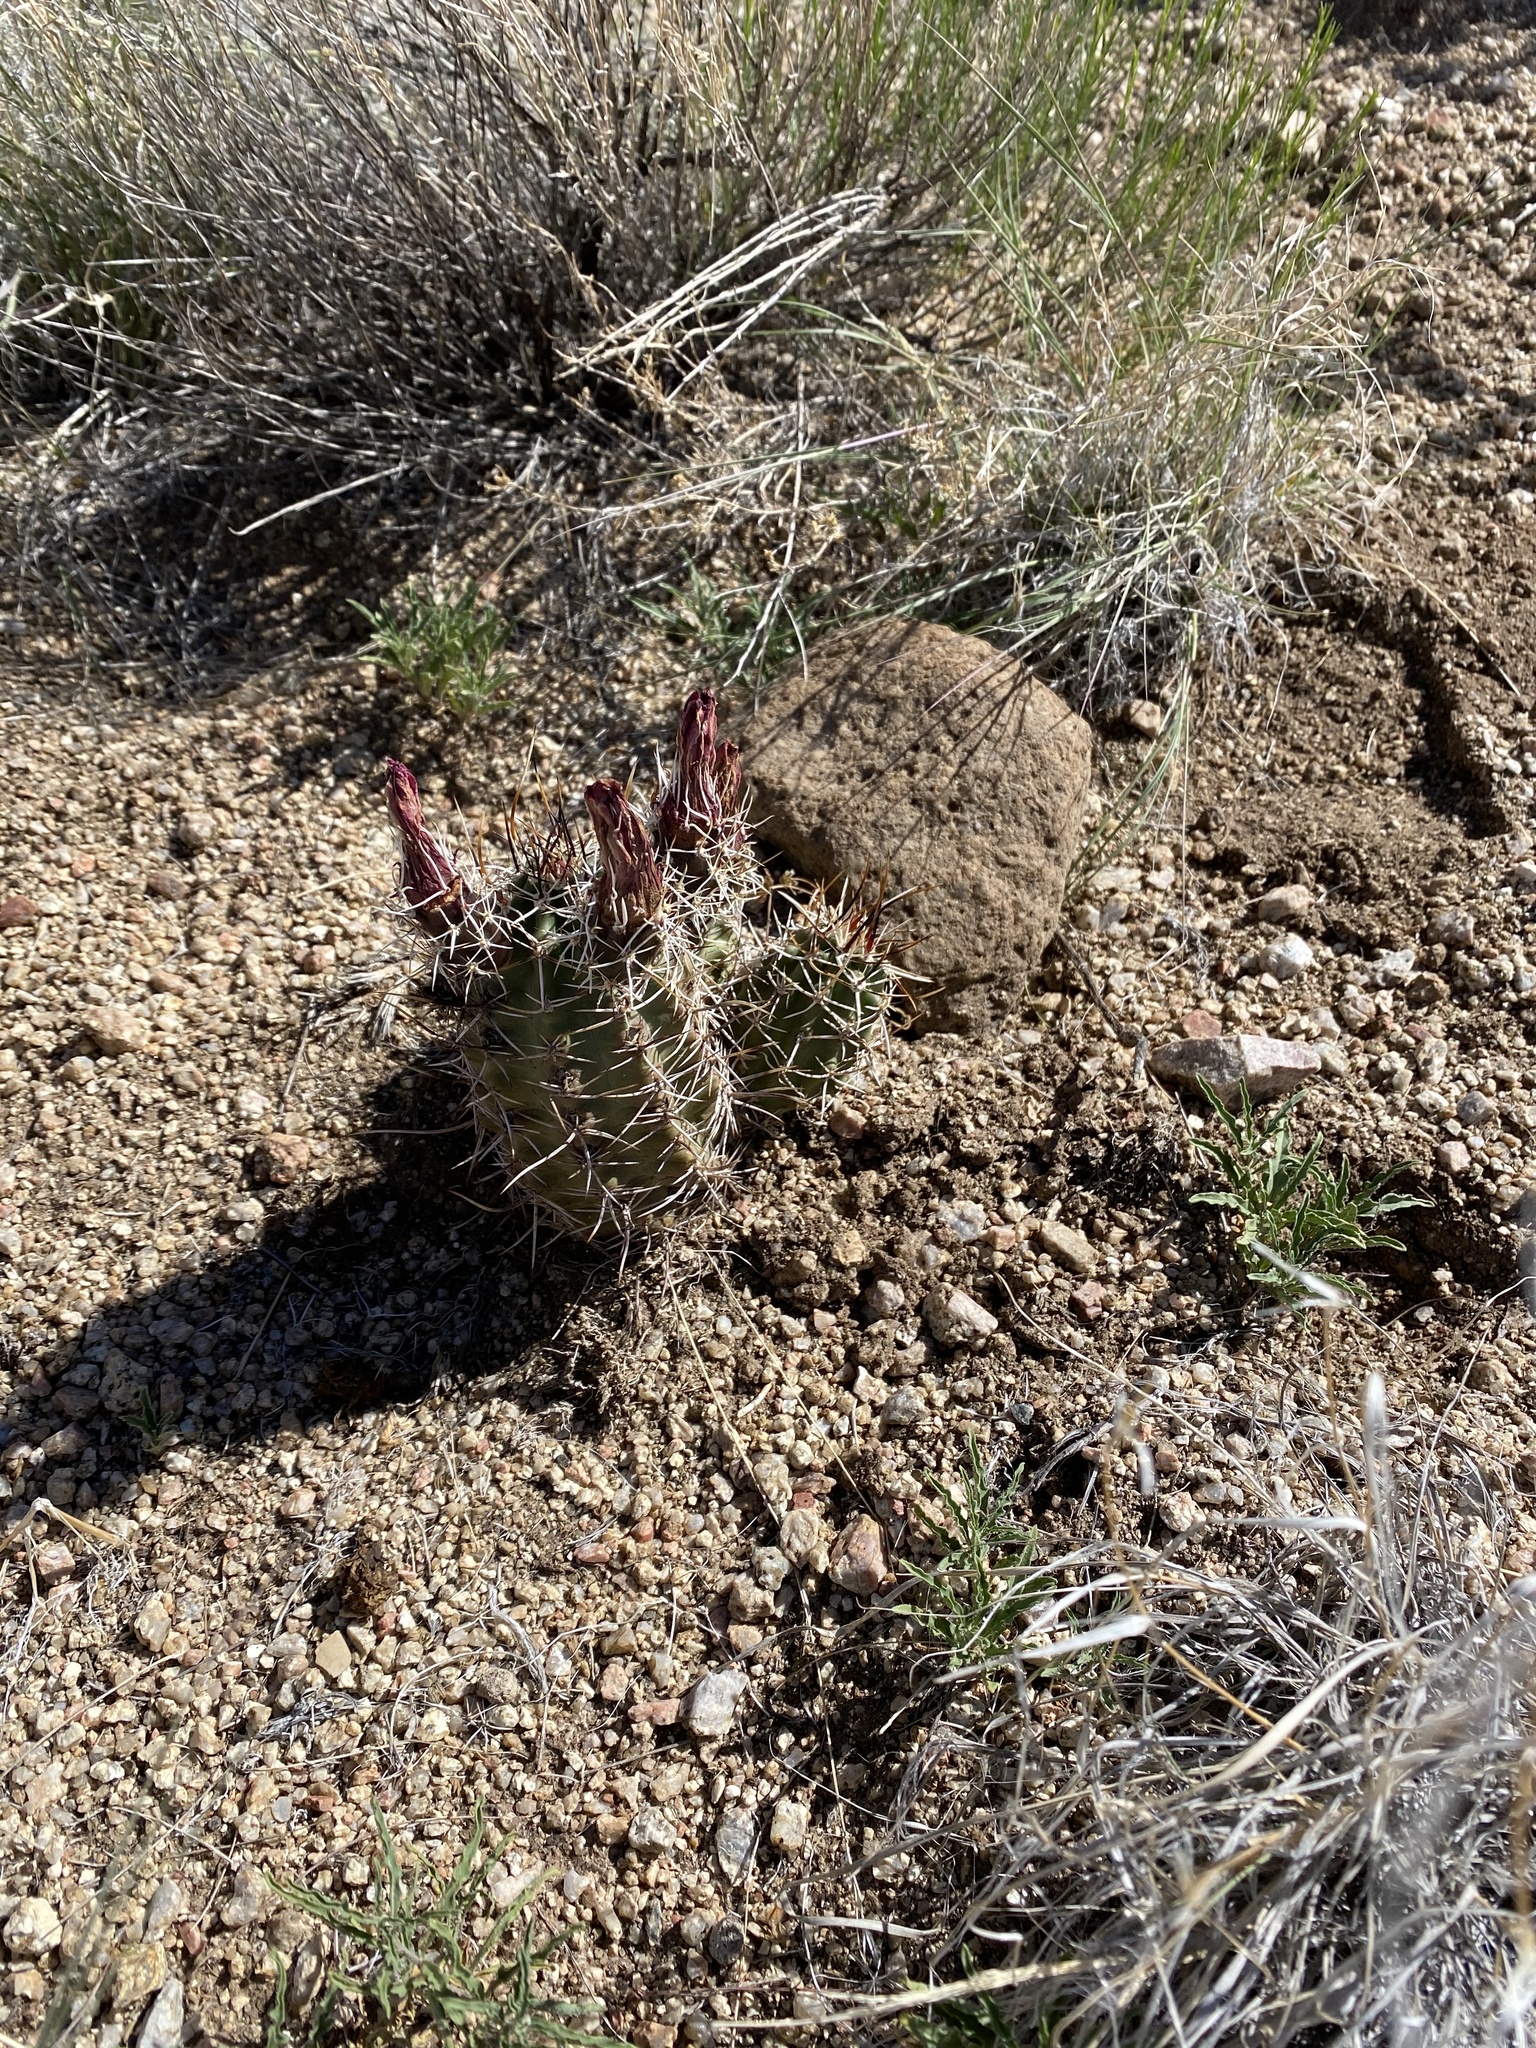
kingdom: Plantae
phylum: Tracheophyta
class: Magnoliopsida
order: Caryophyllales
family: Cactaceae
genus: Echinocereus
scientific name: Echinocereus fendleri
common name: Fendler's hedgehog cactus
